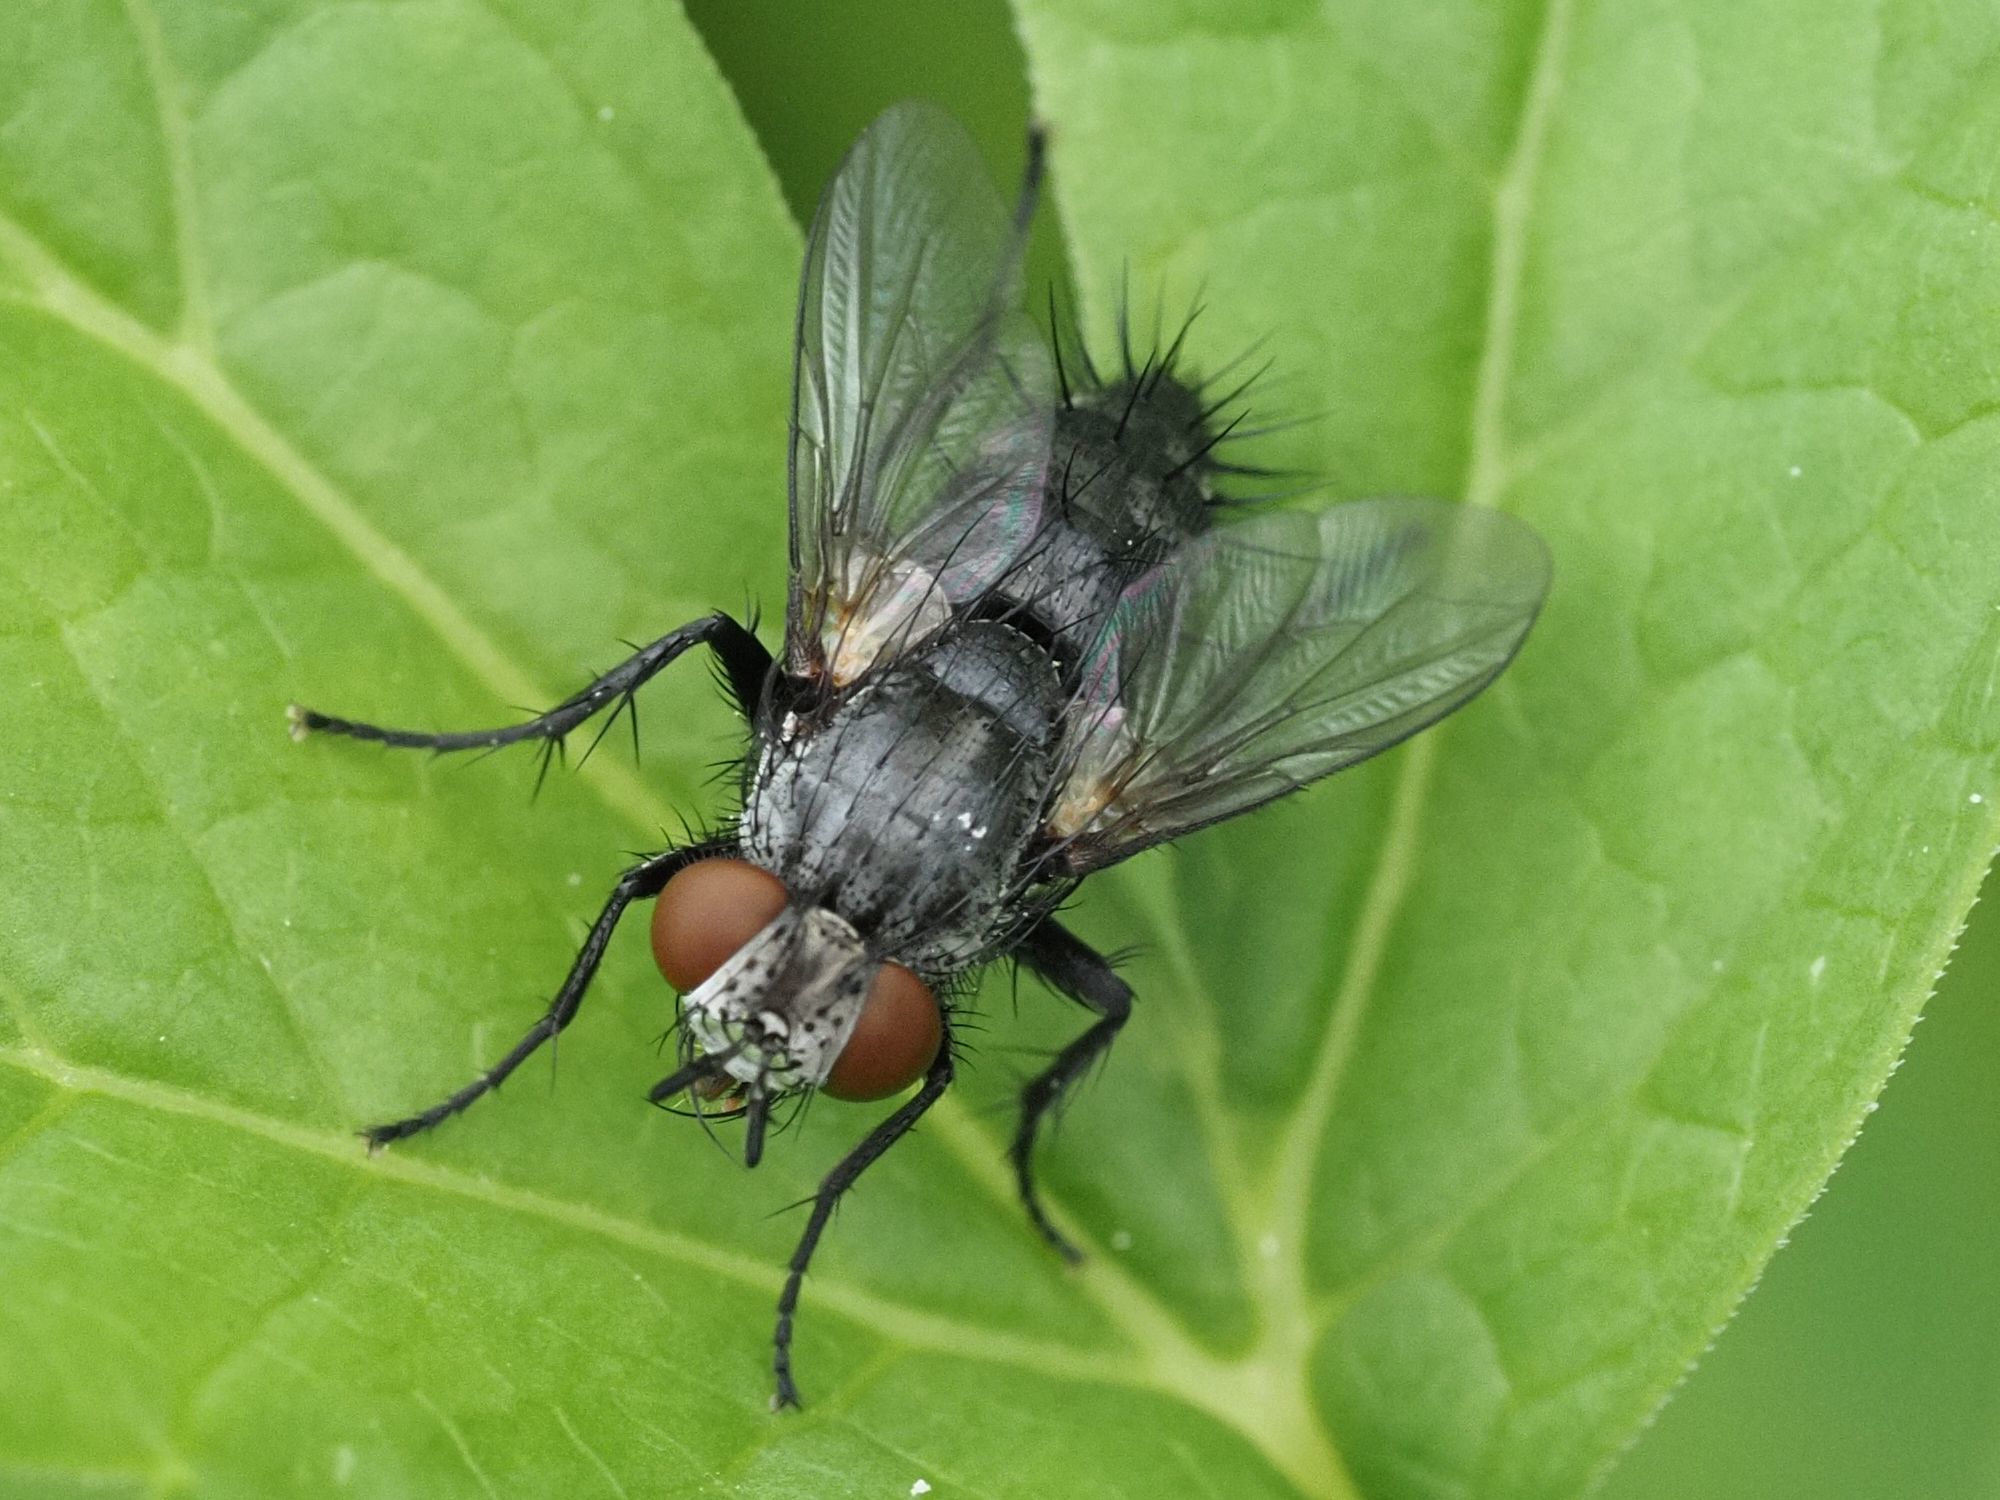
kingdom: Animalia
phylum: Arthropoda
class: Insecta
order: Diptera
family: Tachinidae
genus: Voria
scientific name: Voria ruralis
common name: Parasitic fly
